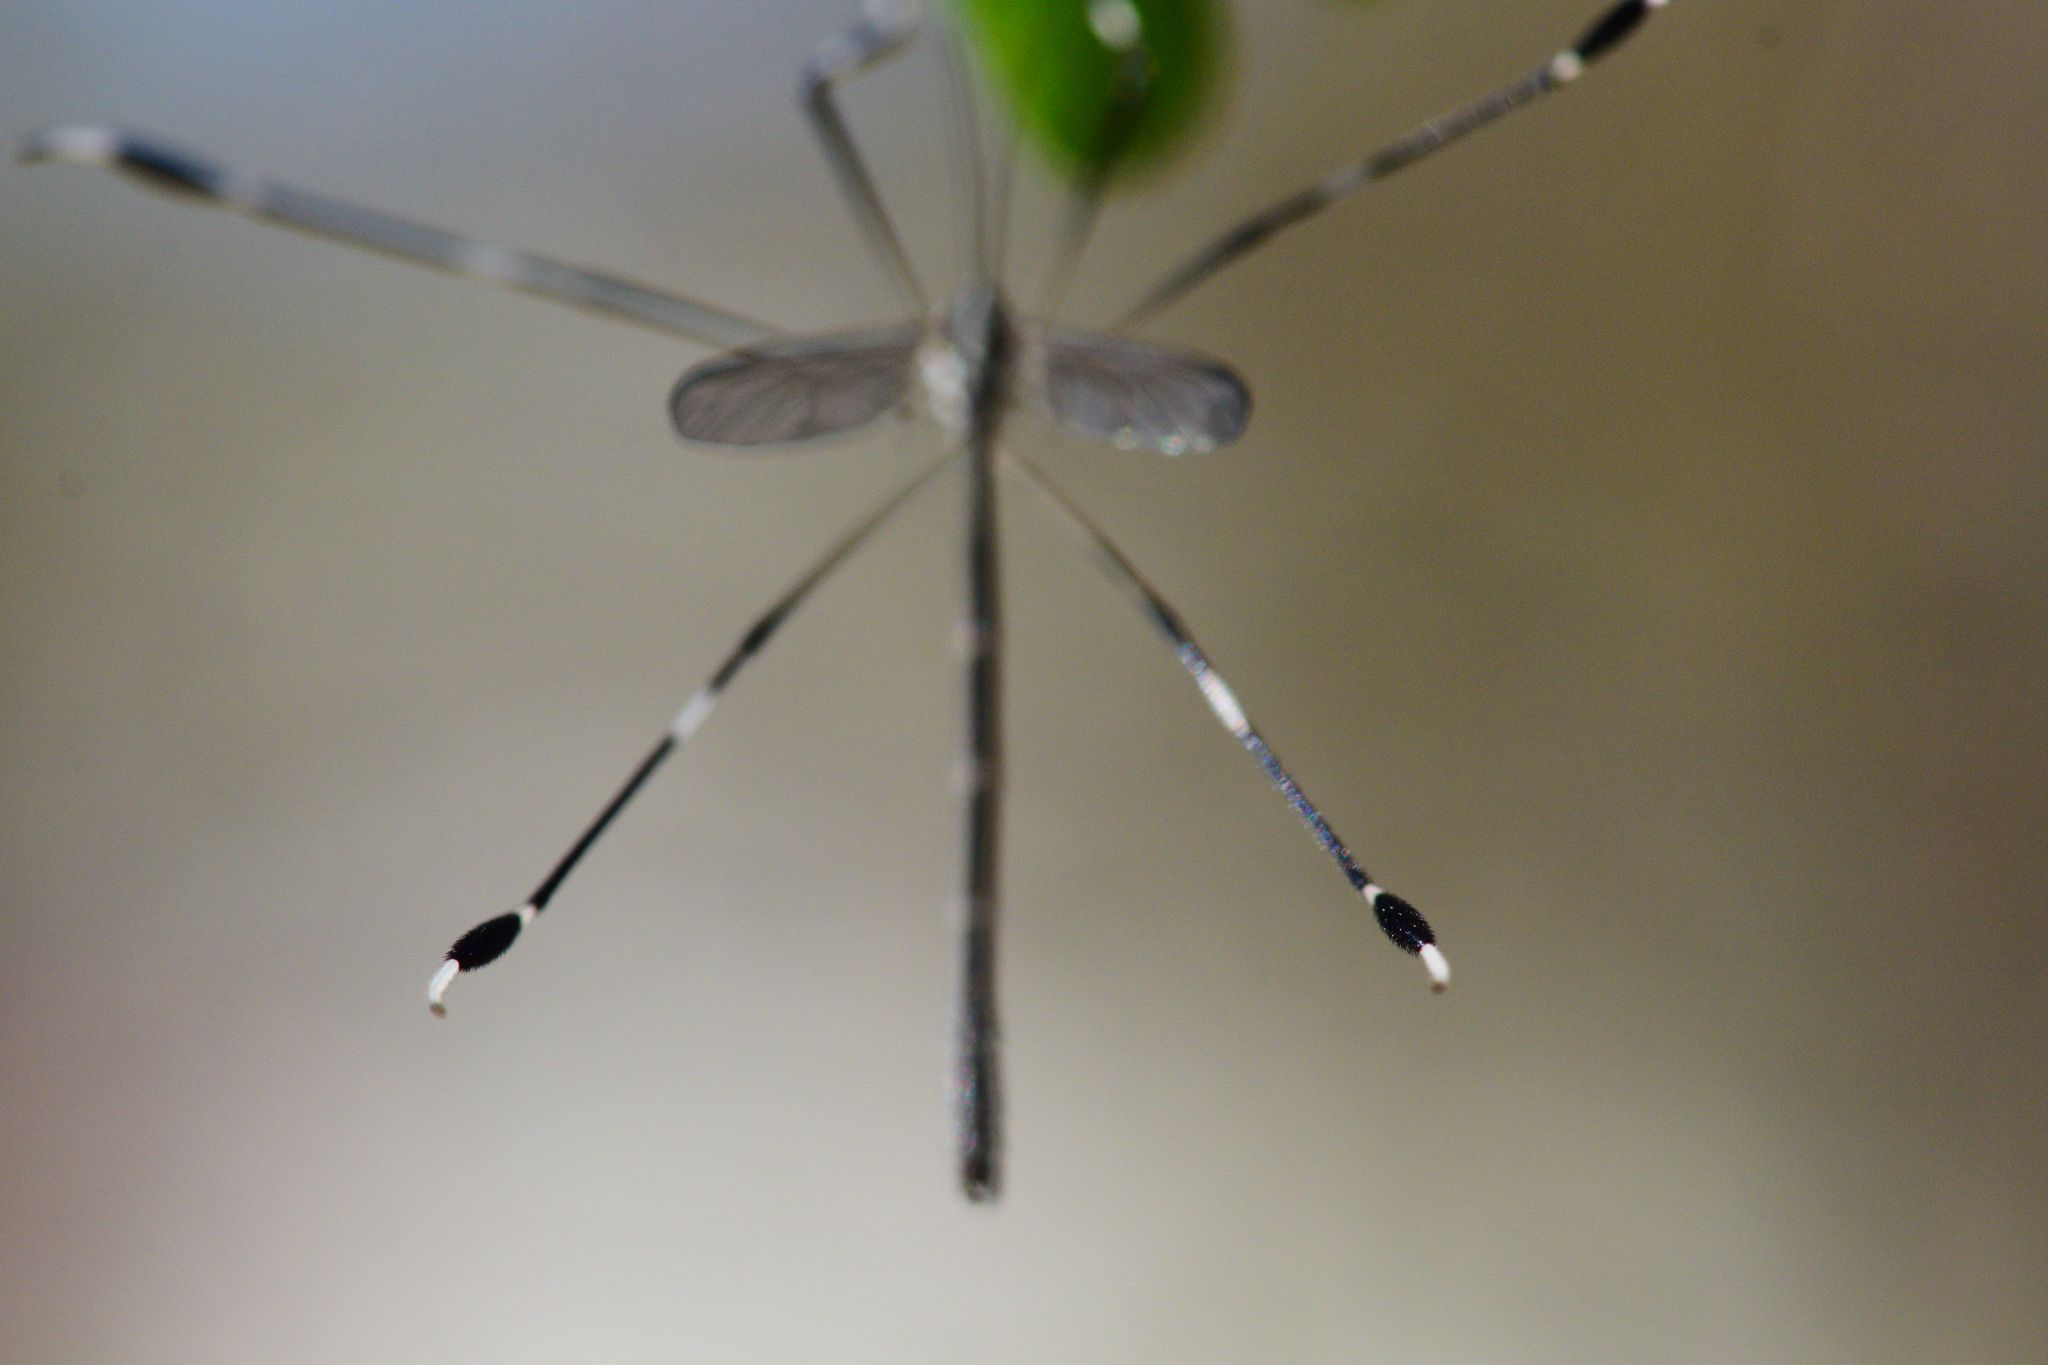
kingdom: Animalia
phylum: Arthropoda
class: Insecta
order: Diptera
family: Ptychopteridae
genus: Bittacomorpha
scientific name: Bittacomorpha clavipes
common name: Eastern phantom crane fly
